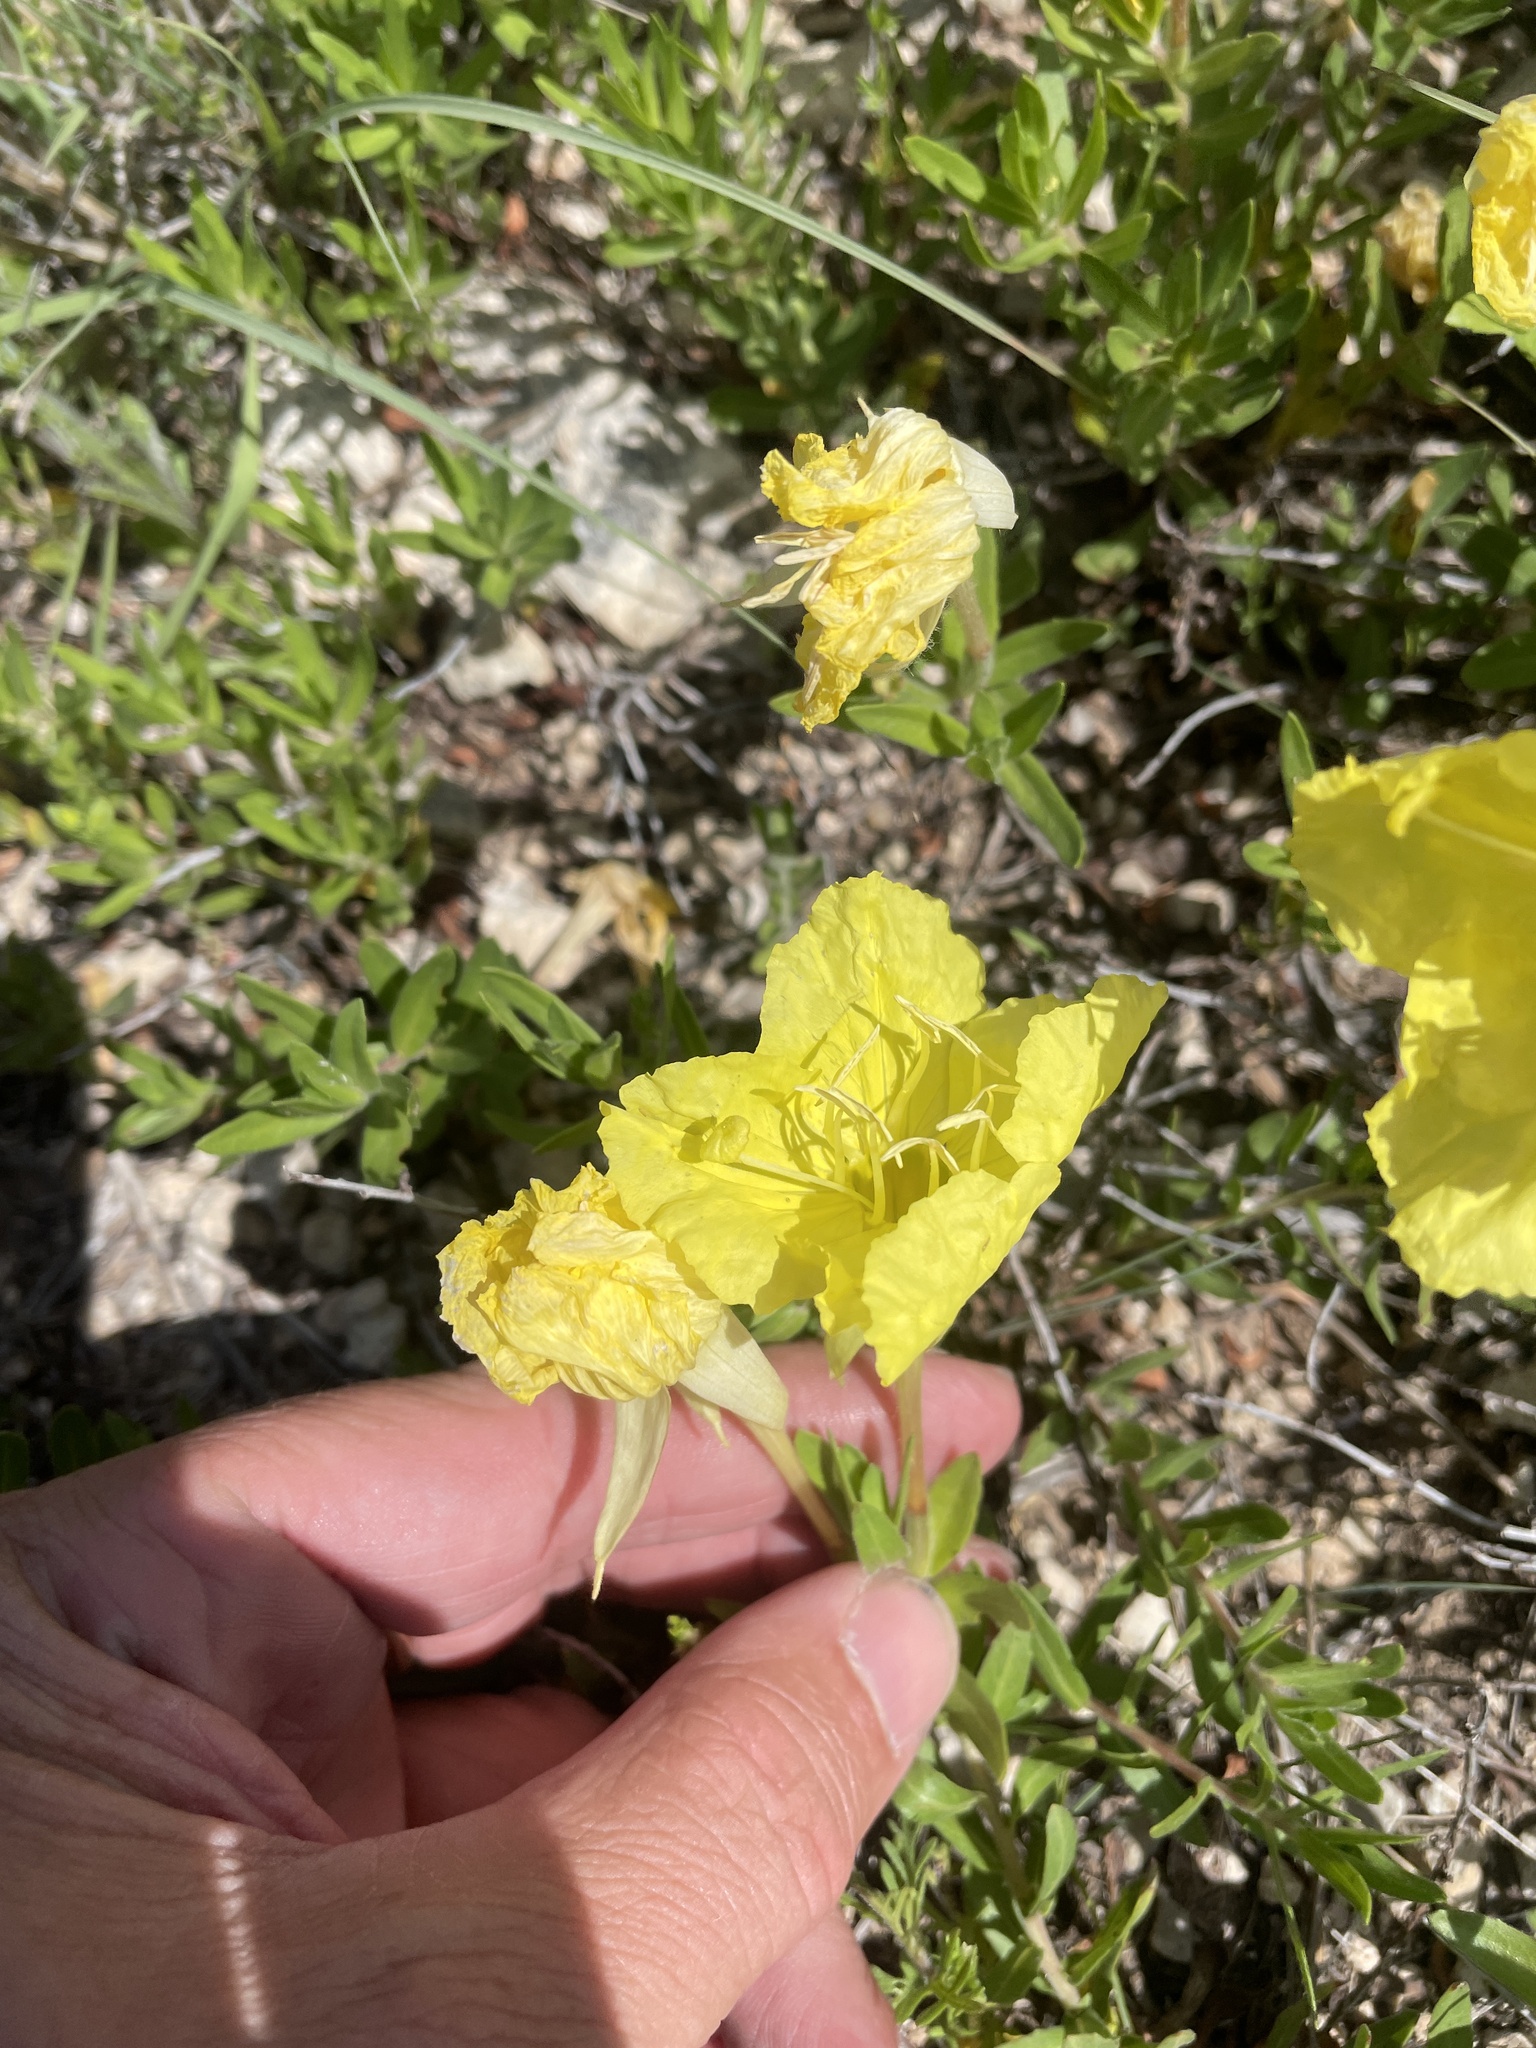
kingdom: Plantae
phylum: Tracheophyta
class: Magnoliopsida
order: Myrtales
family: Onagraceae
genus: Oenothera
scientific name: Oenothera hartwegii
